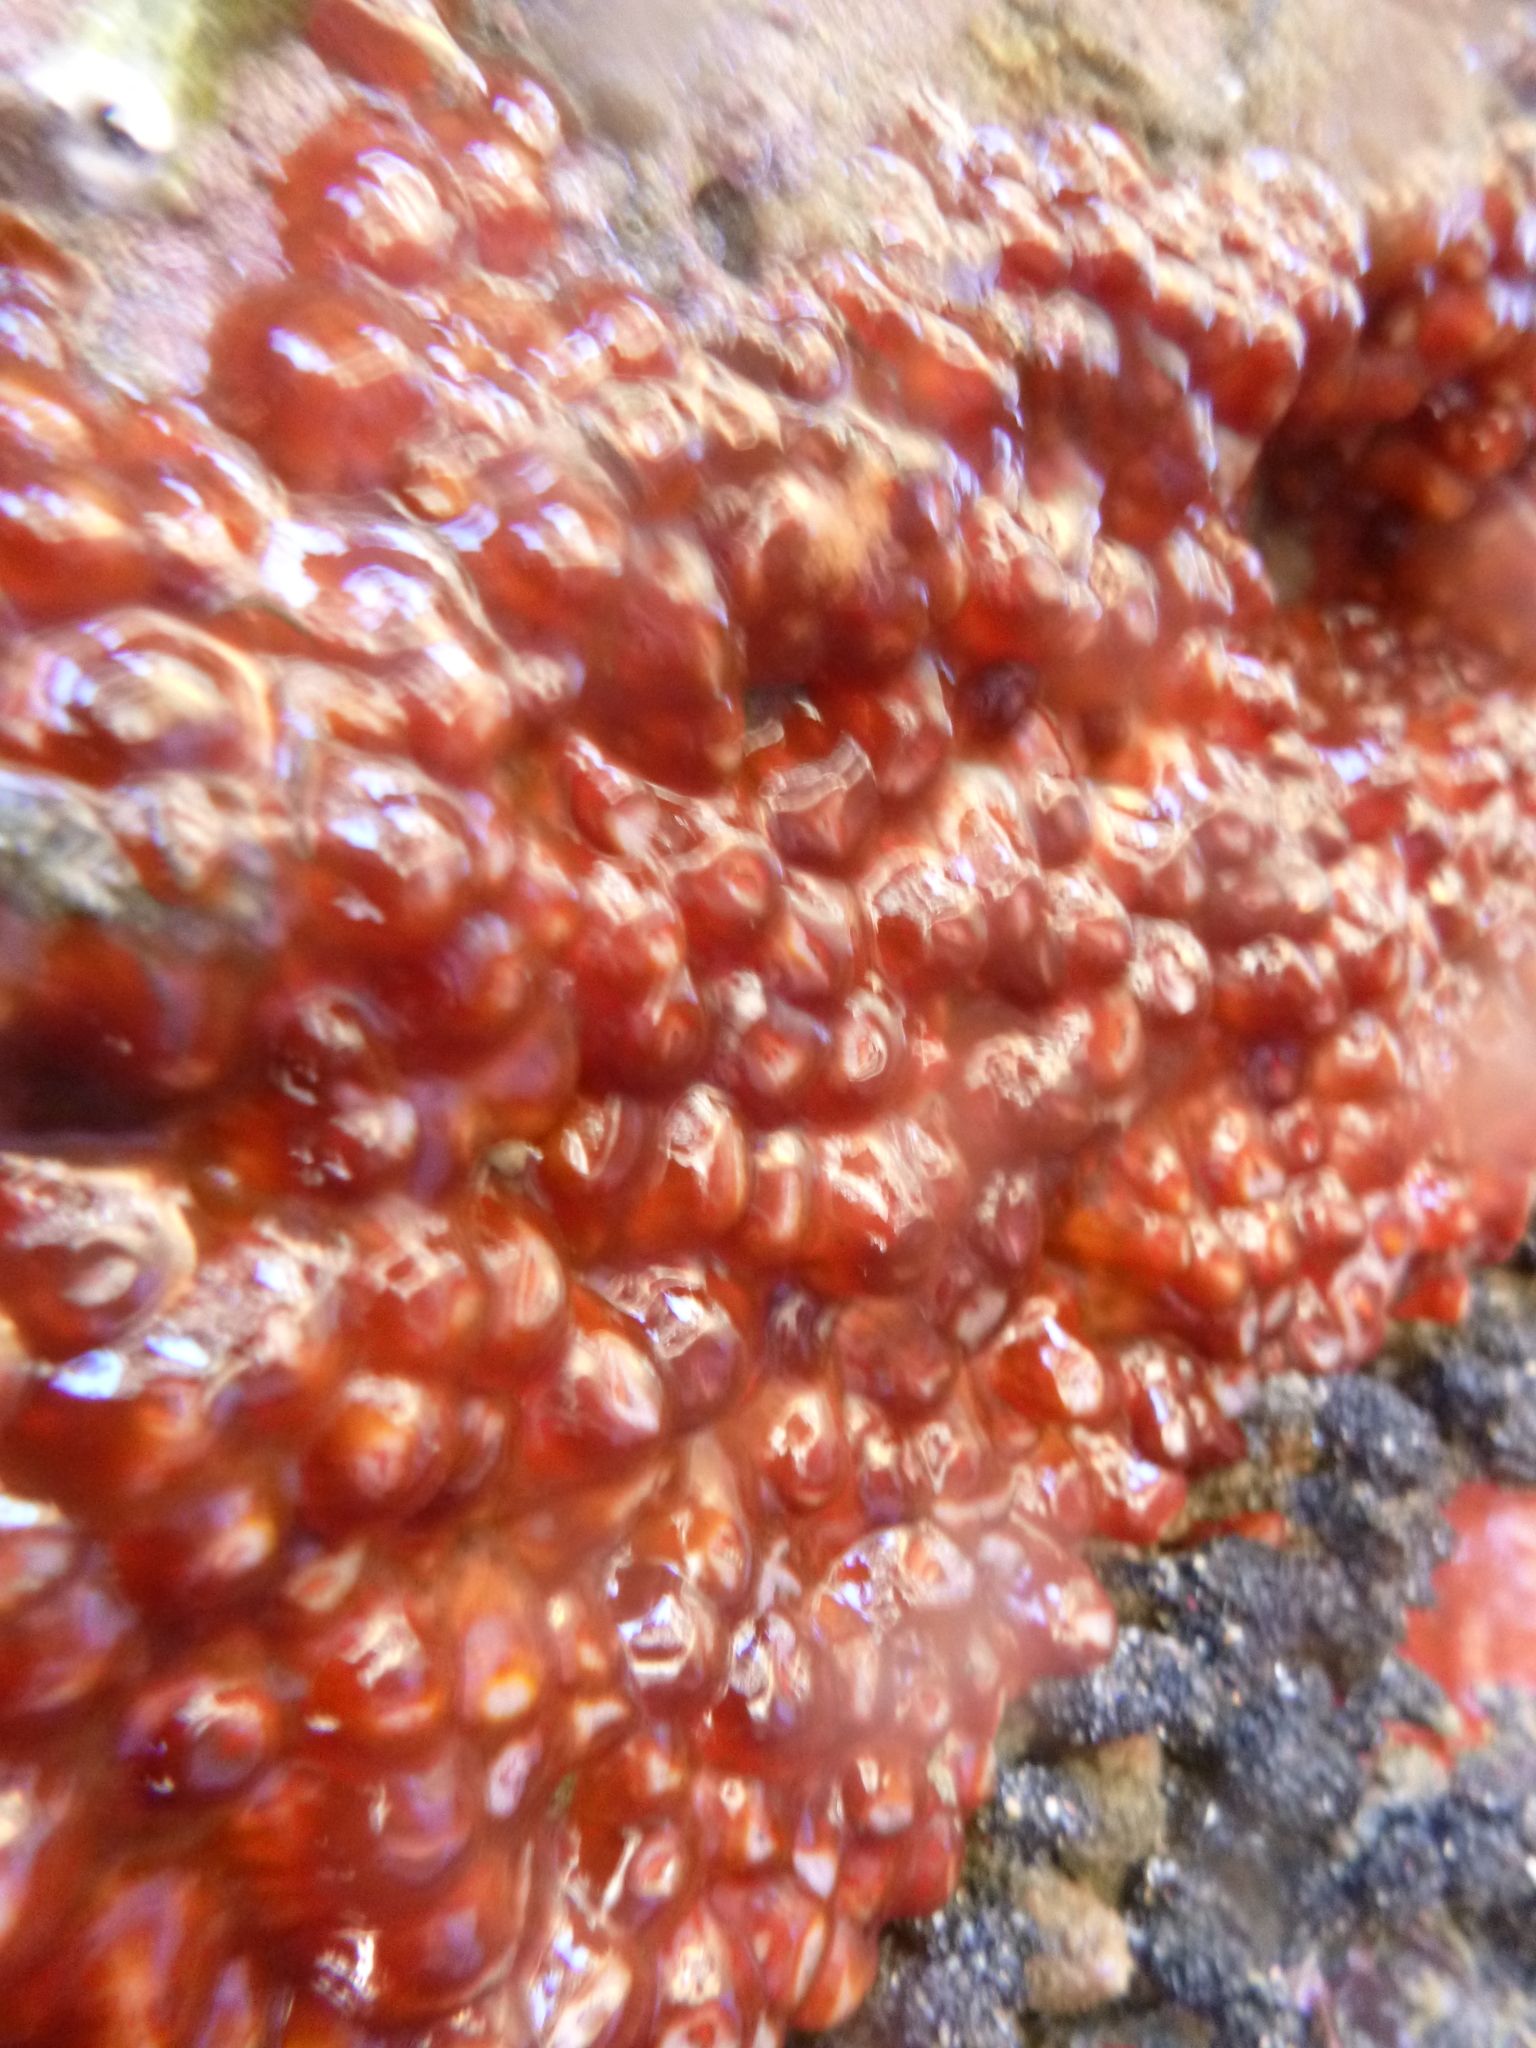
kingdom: Animalia
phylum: Cnidaria
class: Anthozoa
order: Corallimorpharia
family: Corallimorphidae
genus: Corynactis
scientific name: Corynactis australis
